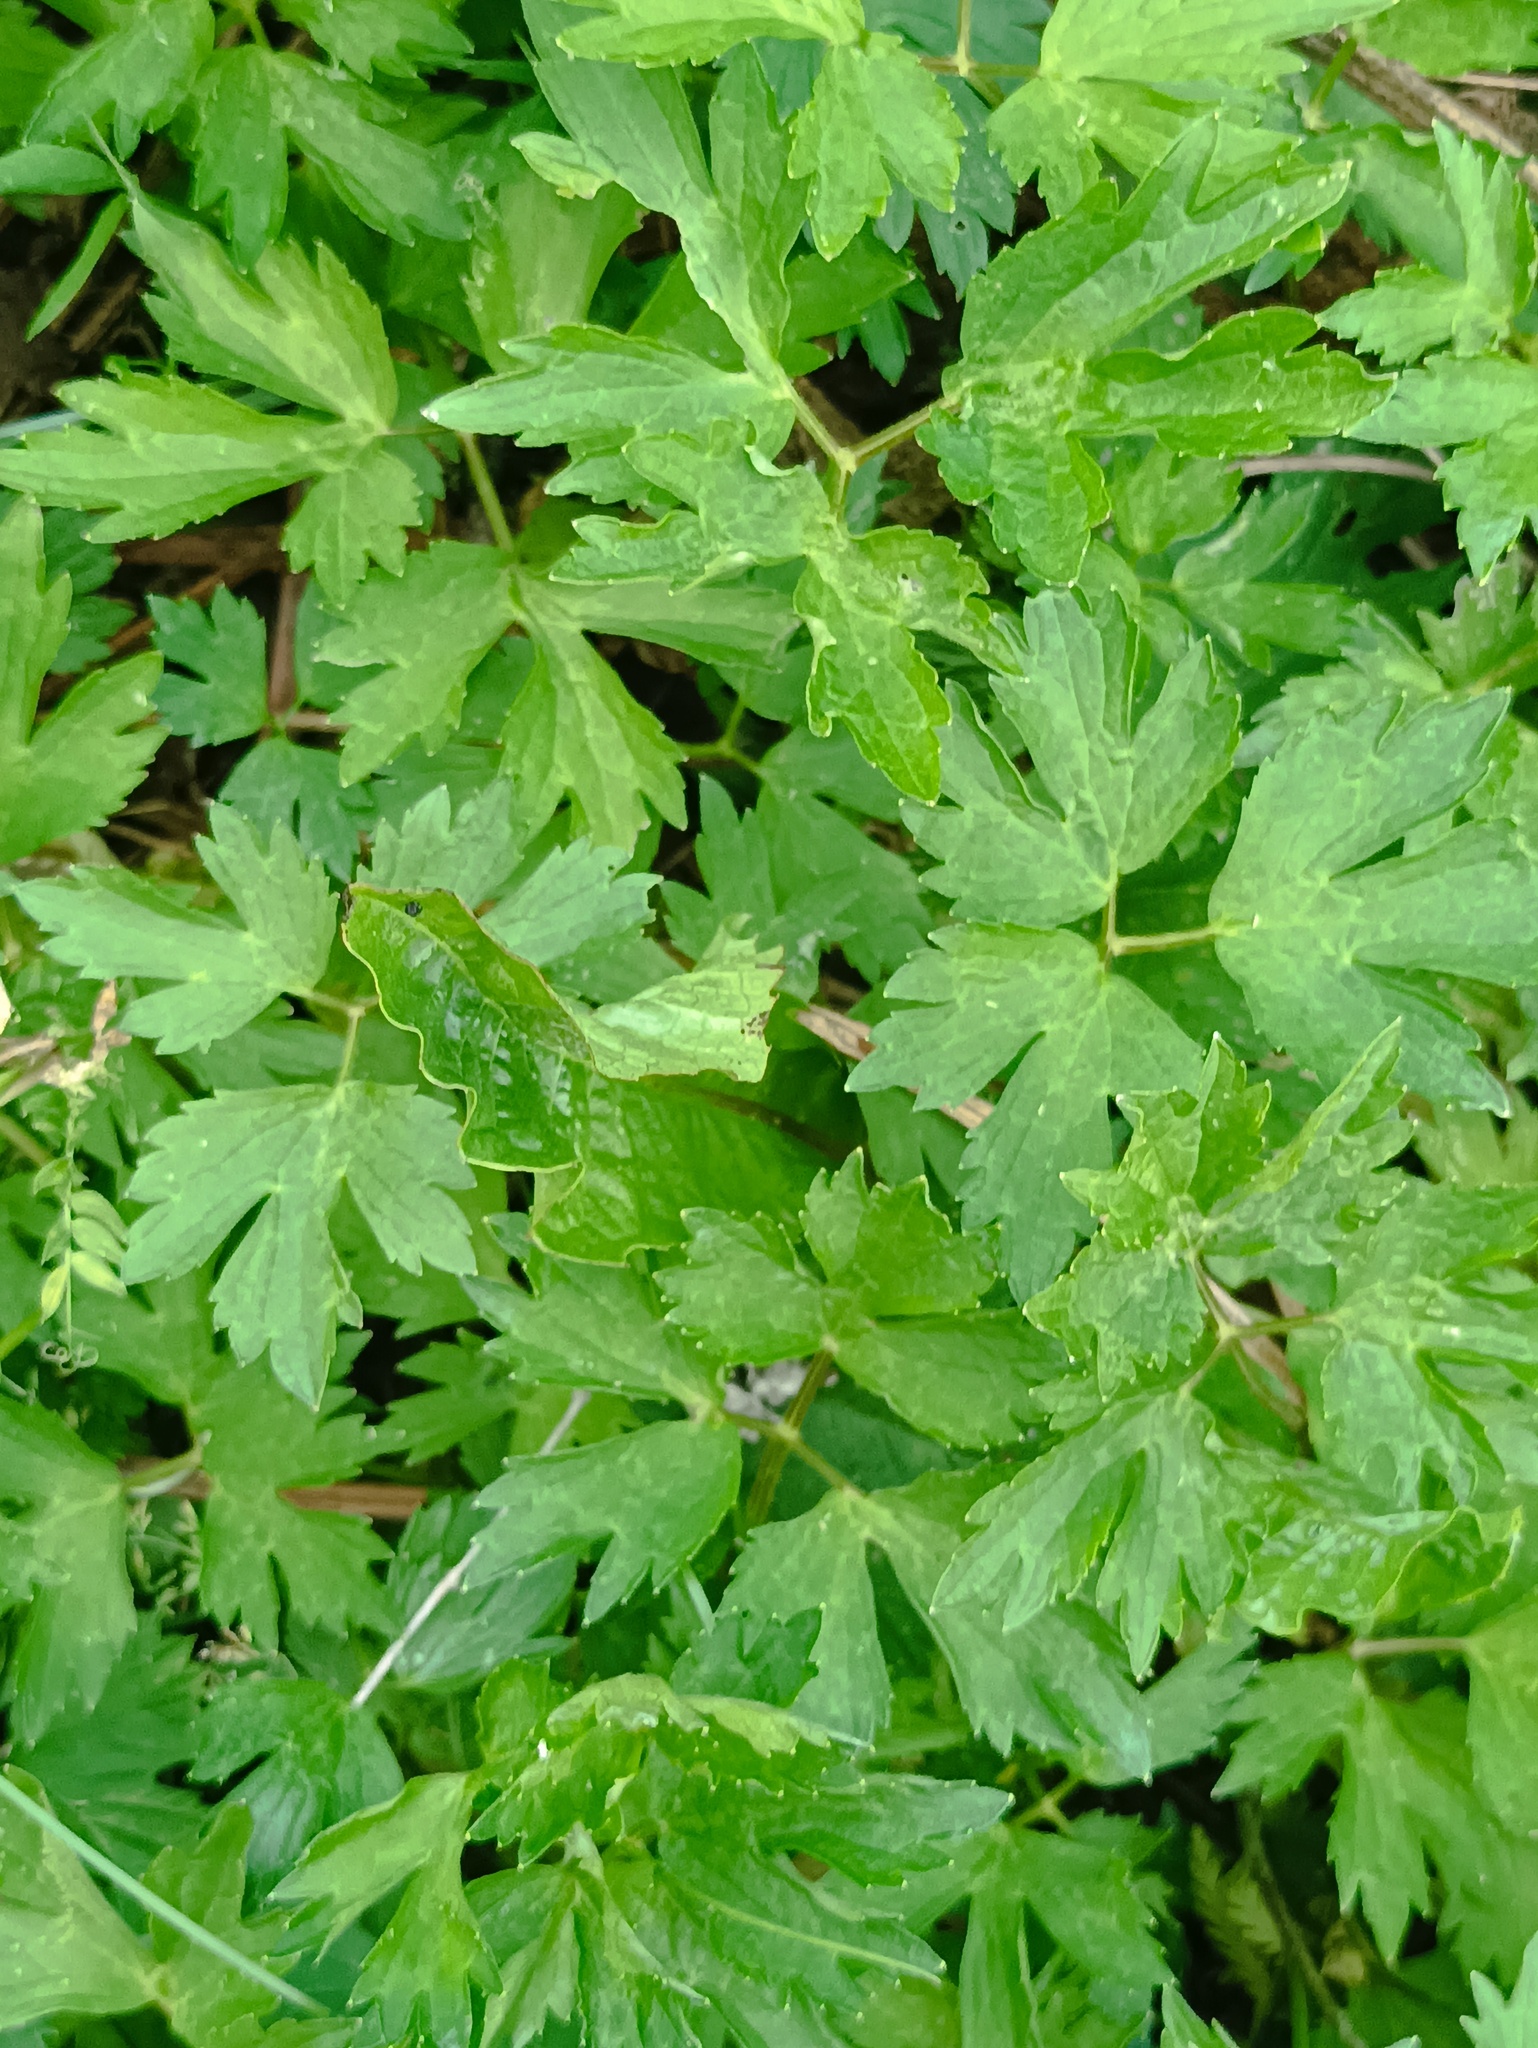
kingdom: Plantae
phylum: Tracheophyta
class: Magnoliopsida
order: Ranunculales
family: Ranunculaceae
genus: Ranunculus
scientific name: Ranunculus repens
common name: Creeping buttercup
